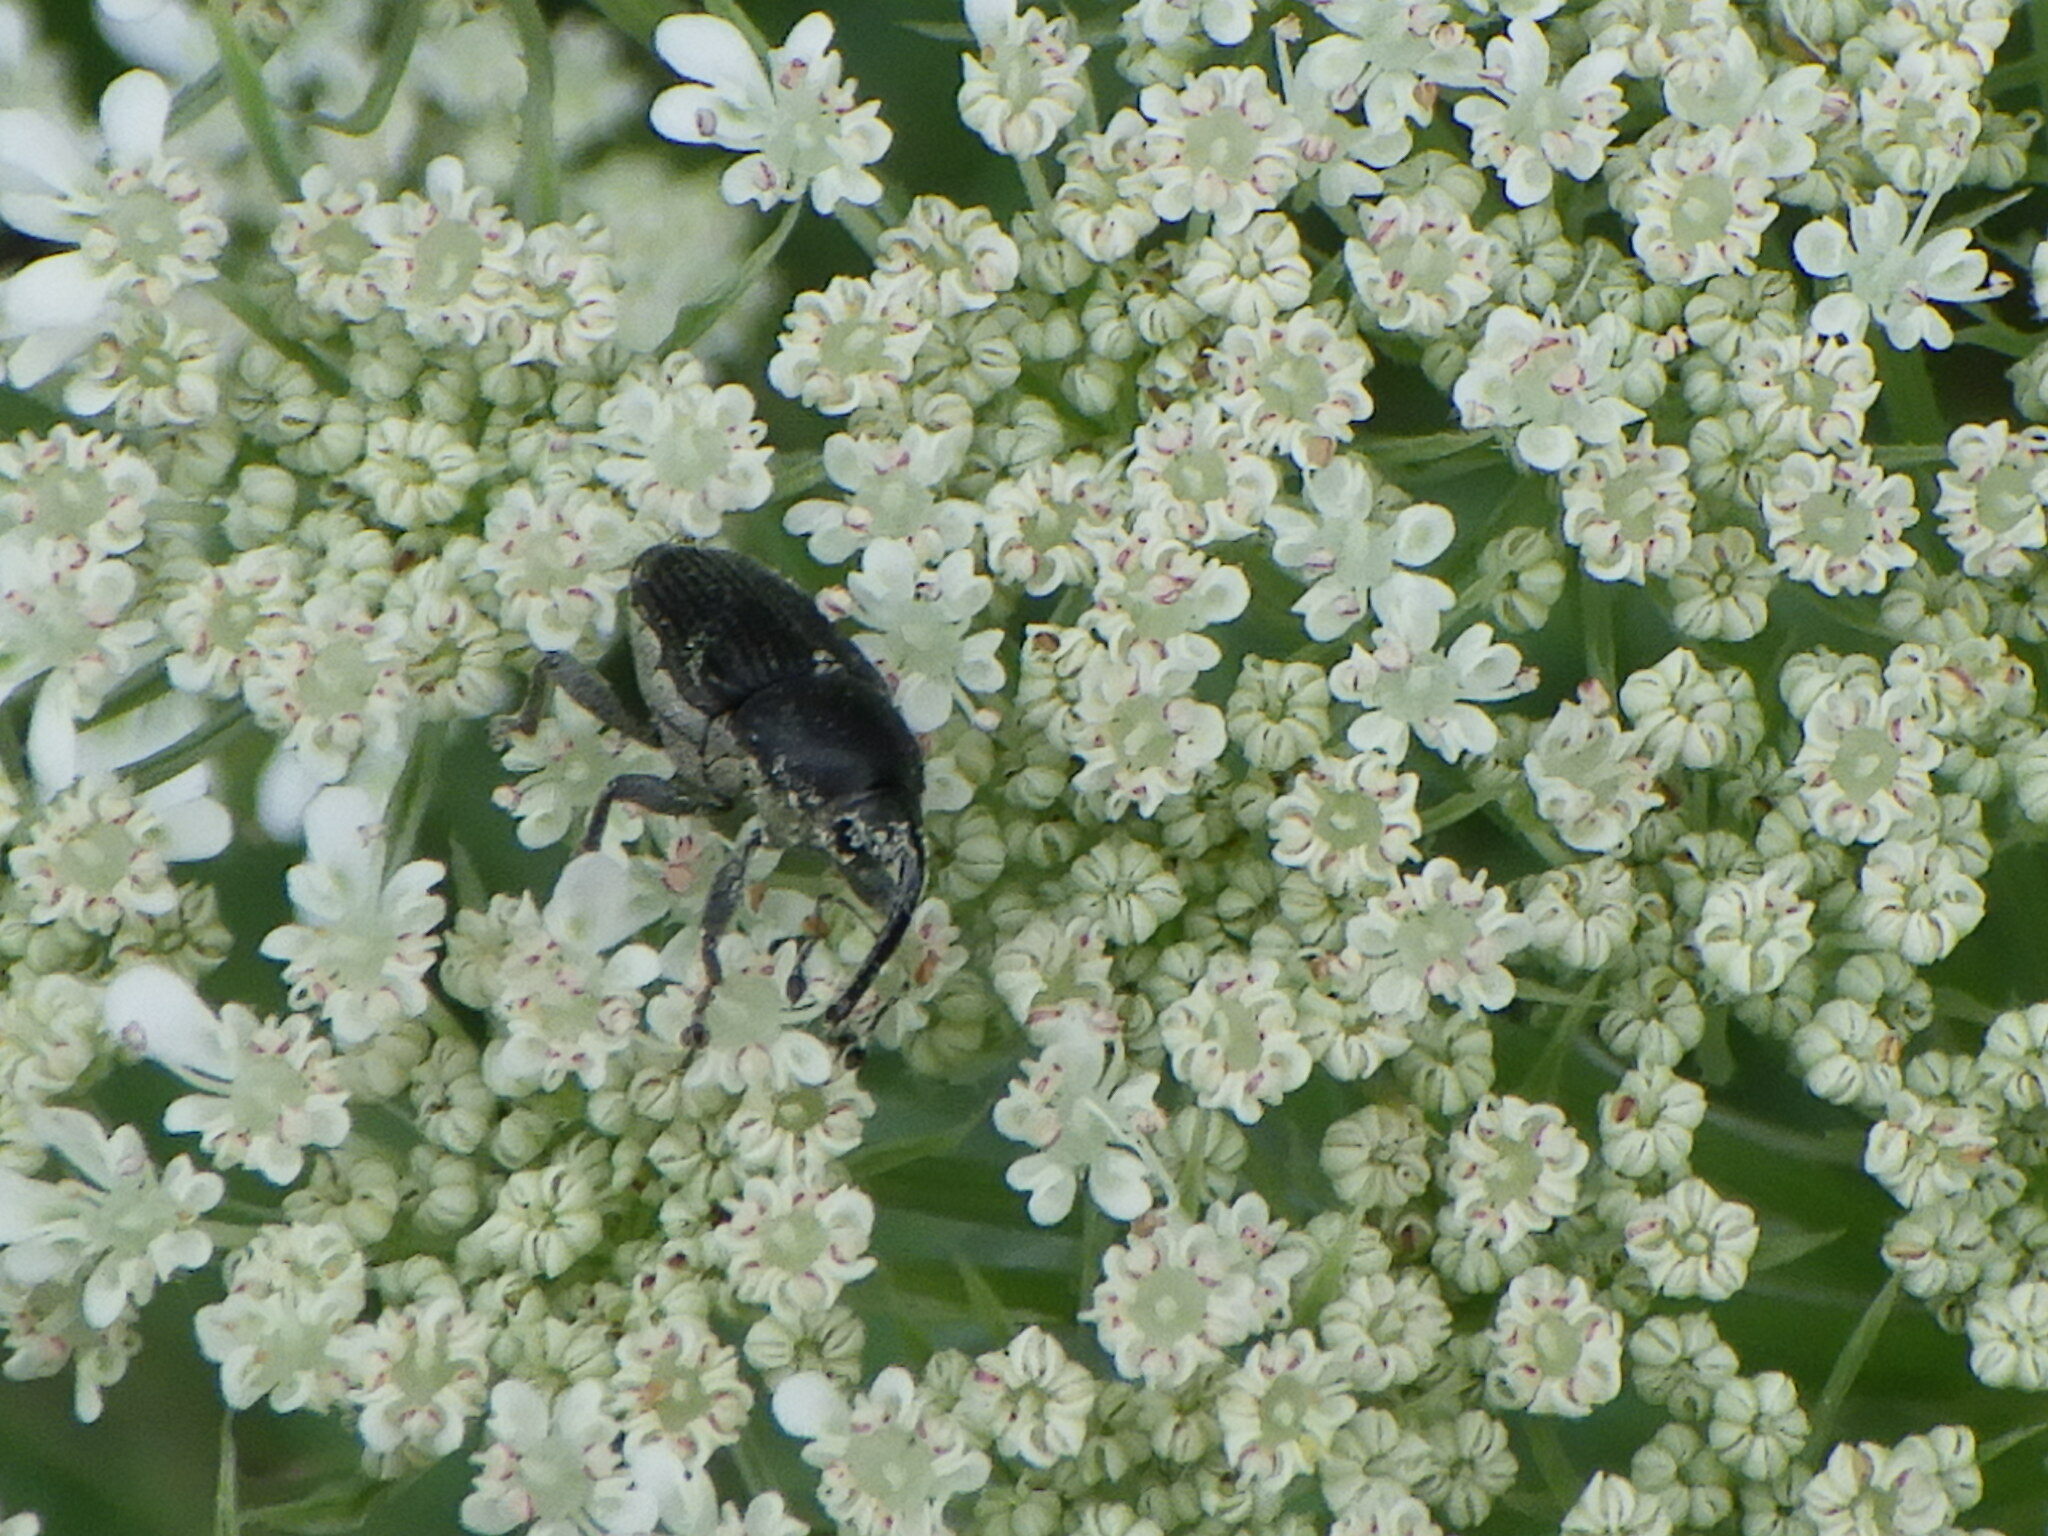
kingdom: Animalia
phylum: Arthropoda
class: Insecta
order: Coleoptera
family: Curculionidae
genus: Odontocorynus
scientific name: Odontocorynus salebrosus
